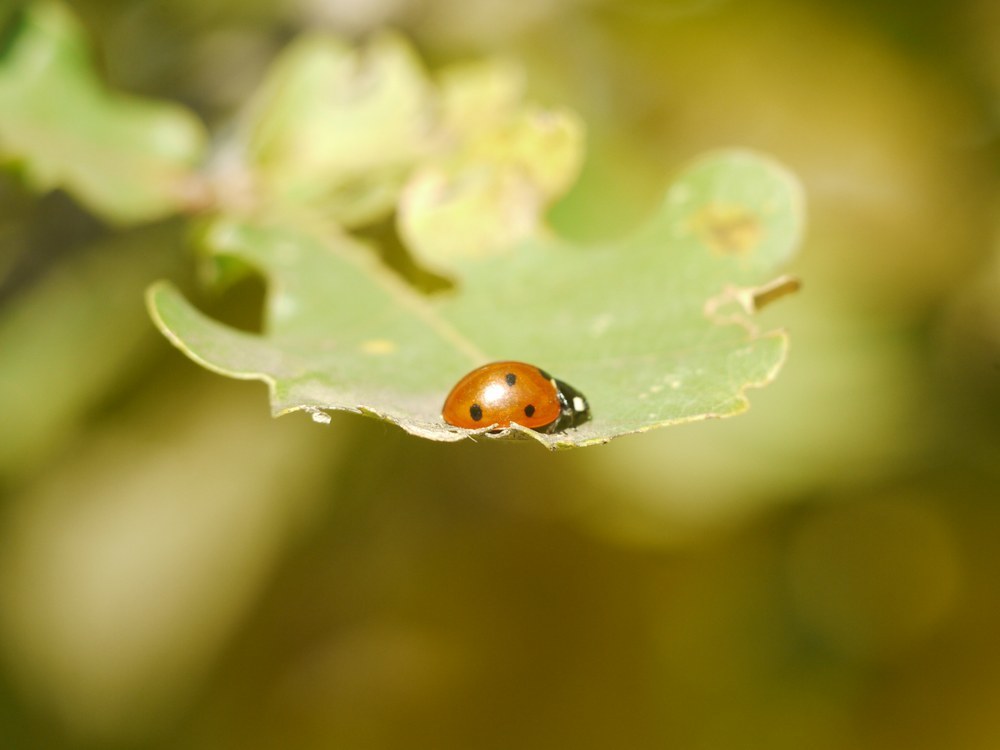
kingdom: Animalia
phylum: Arthropoda
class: Insecta
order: Coleoptera
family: Coccinellidae
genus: Coccinella
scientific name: Coccinella septempunctata
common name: Sevenspotted lady beetle
